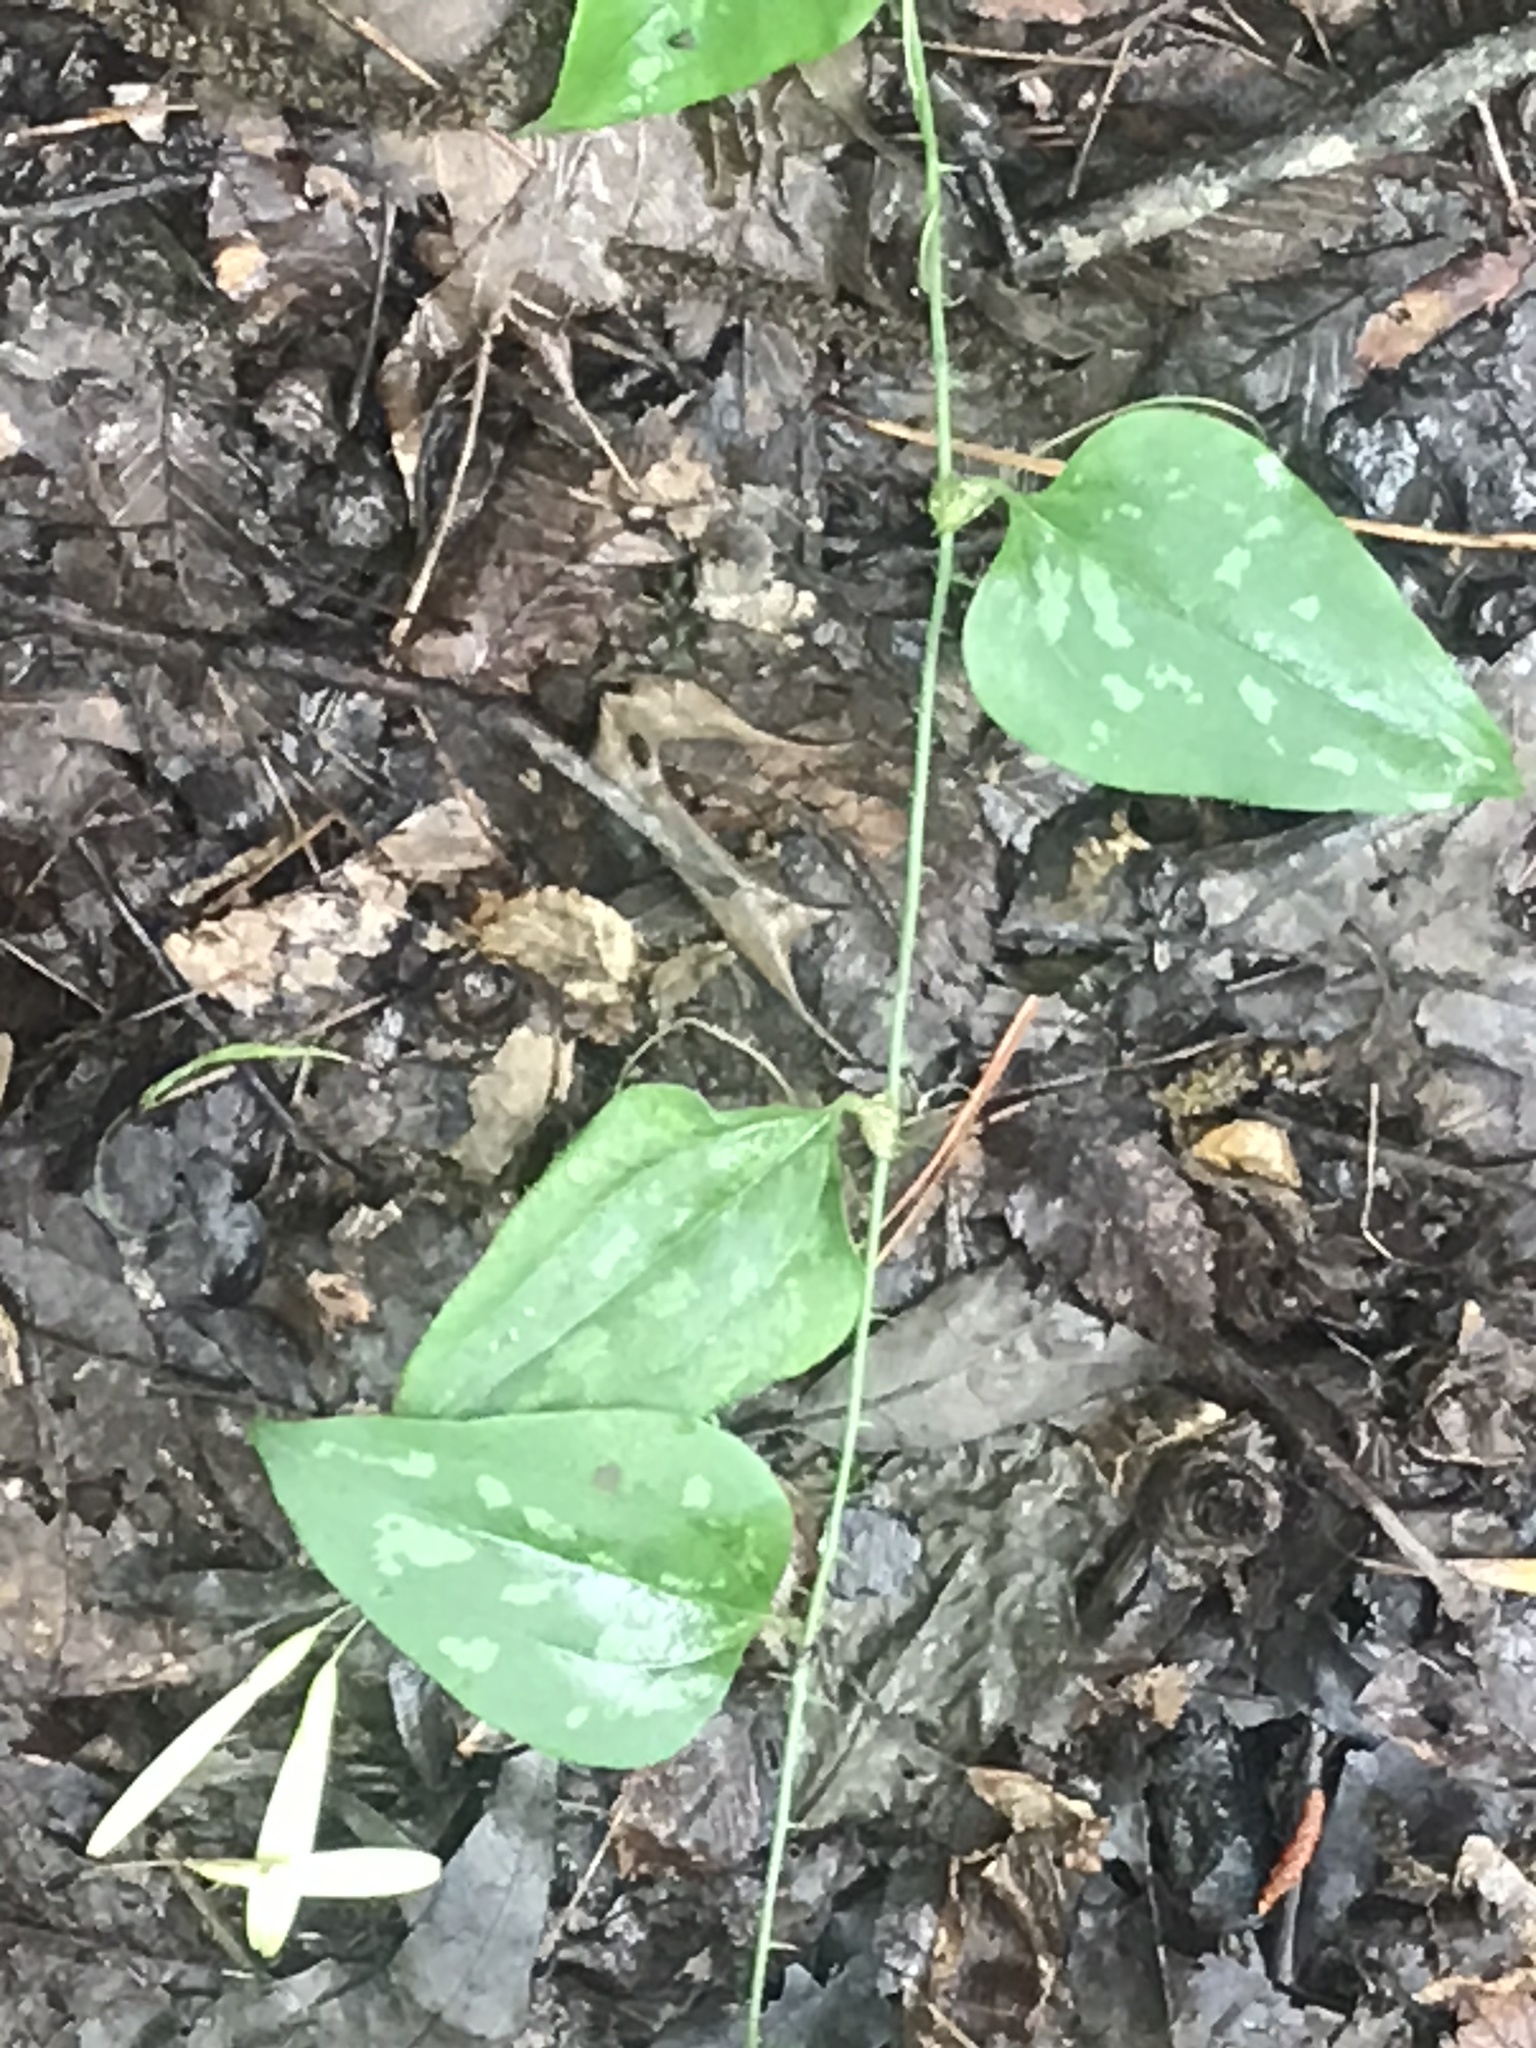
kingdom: Plantae
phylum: Tracheophyta
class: Liliopsida
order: Liliales
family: Smilacaceae
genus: Smilax
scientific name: Smilax bona-nox
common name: Catbrier
